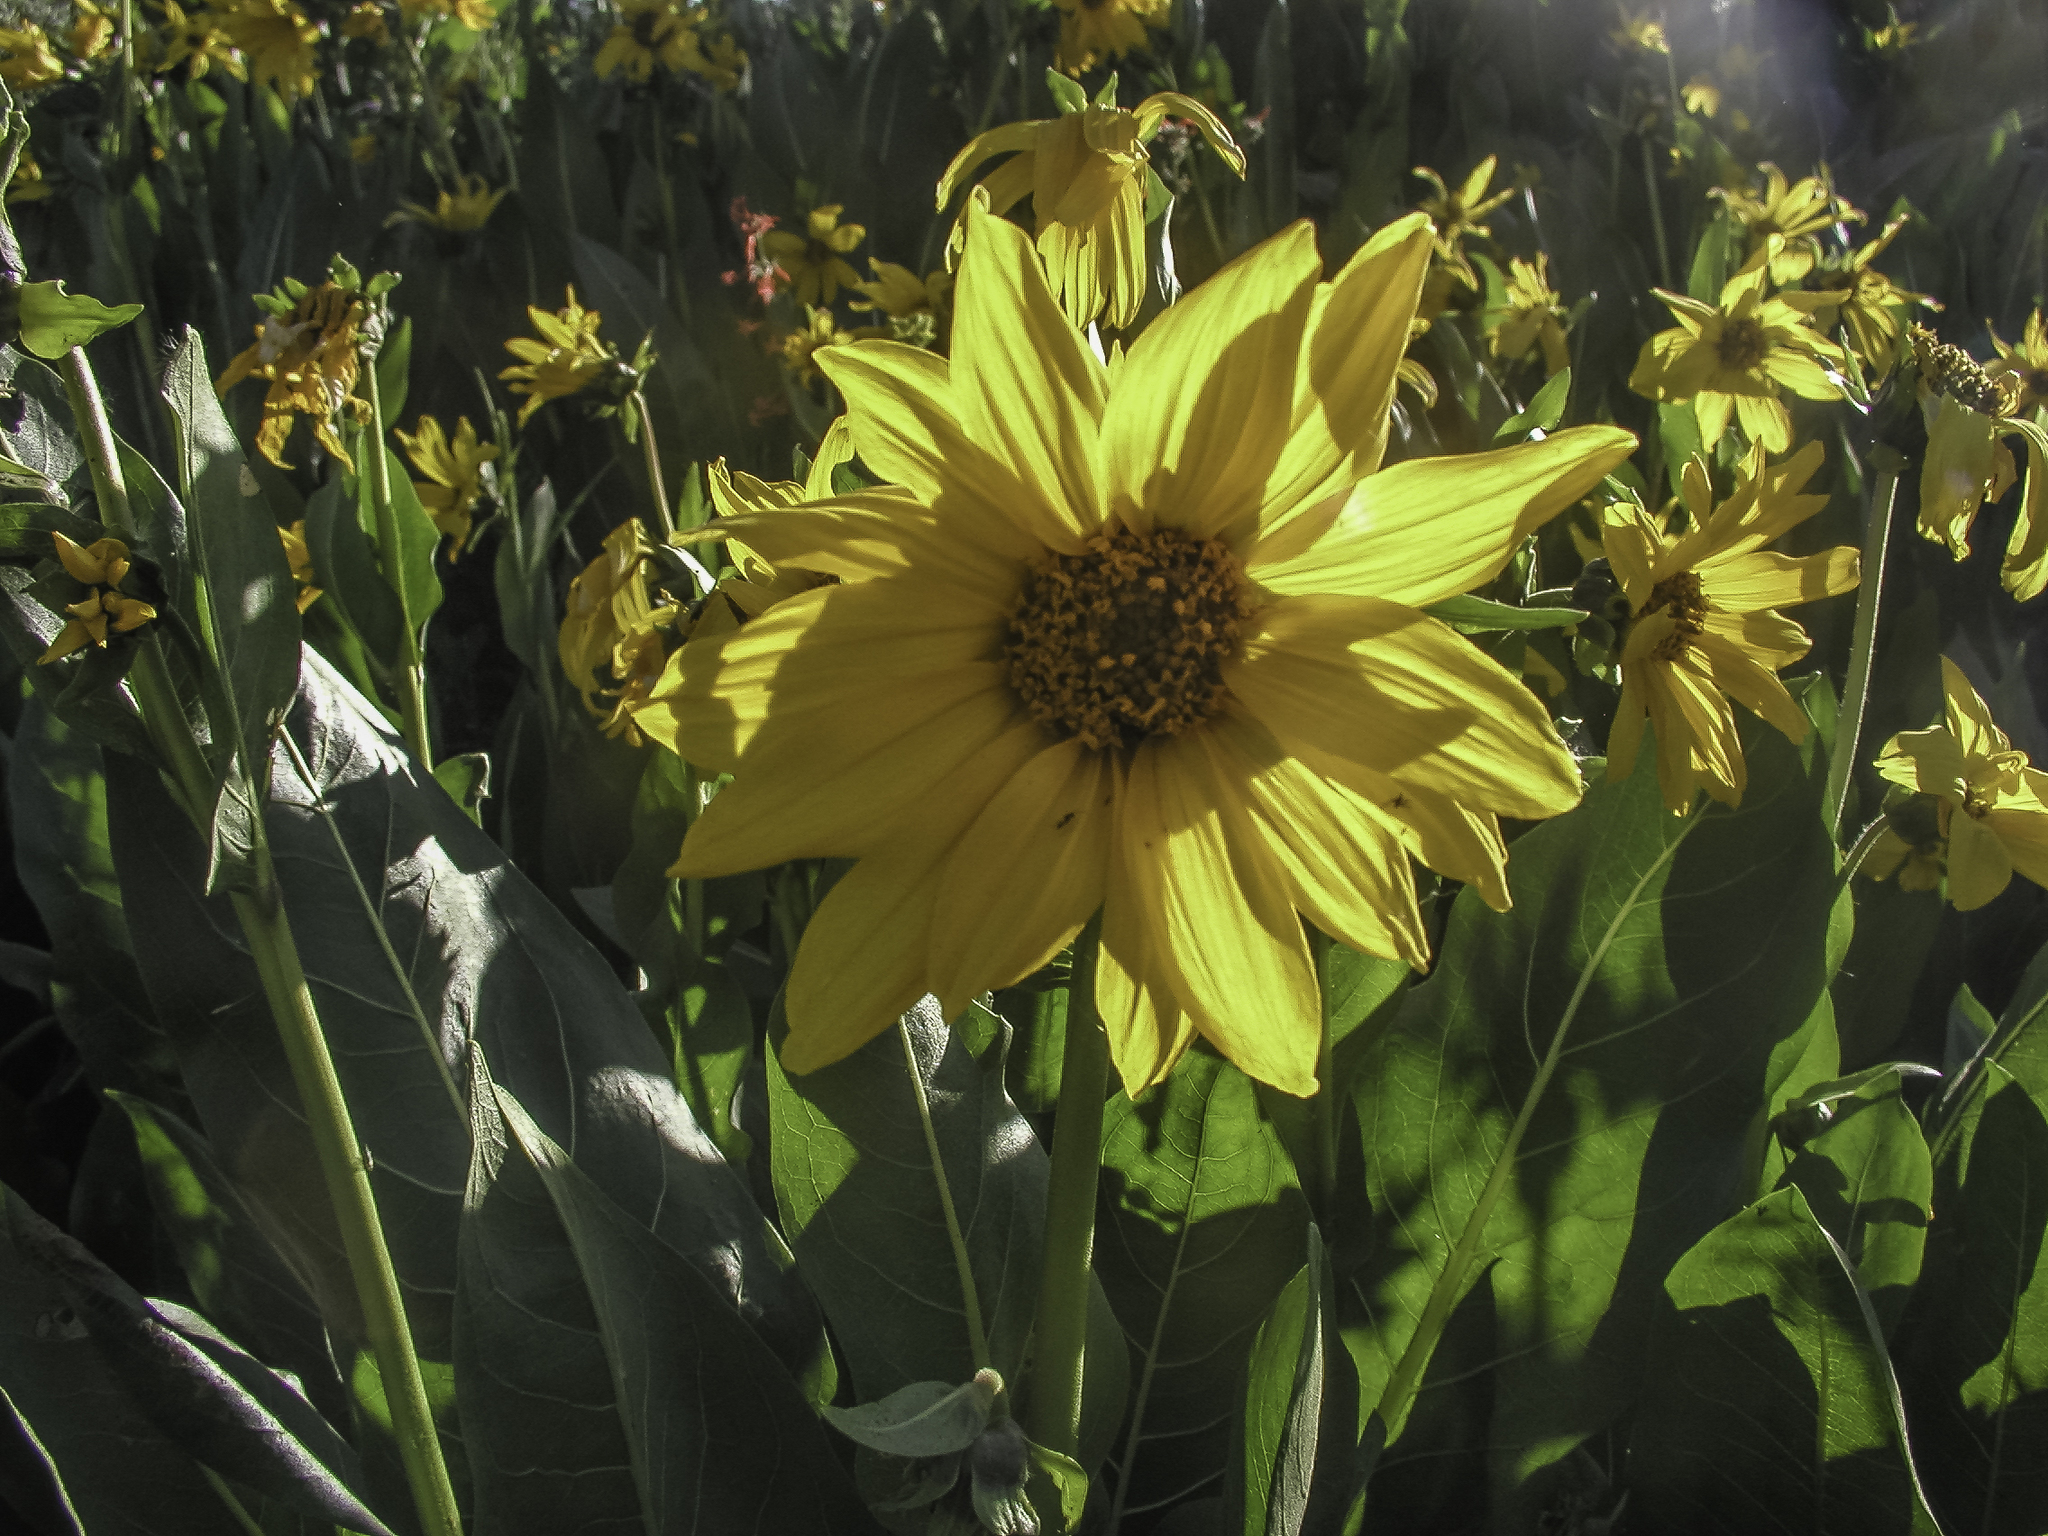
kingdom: Plantae
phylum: Tracheophyta
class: Magnoliopsida
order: Asterales
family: Asteraceae
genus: Wyethia
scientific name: Wyethia amplexicaulis
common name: Northern mule's-ears
